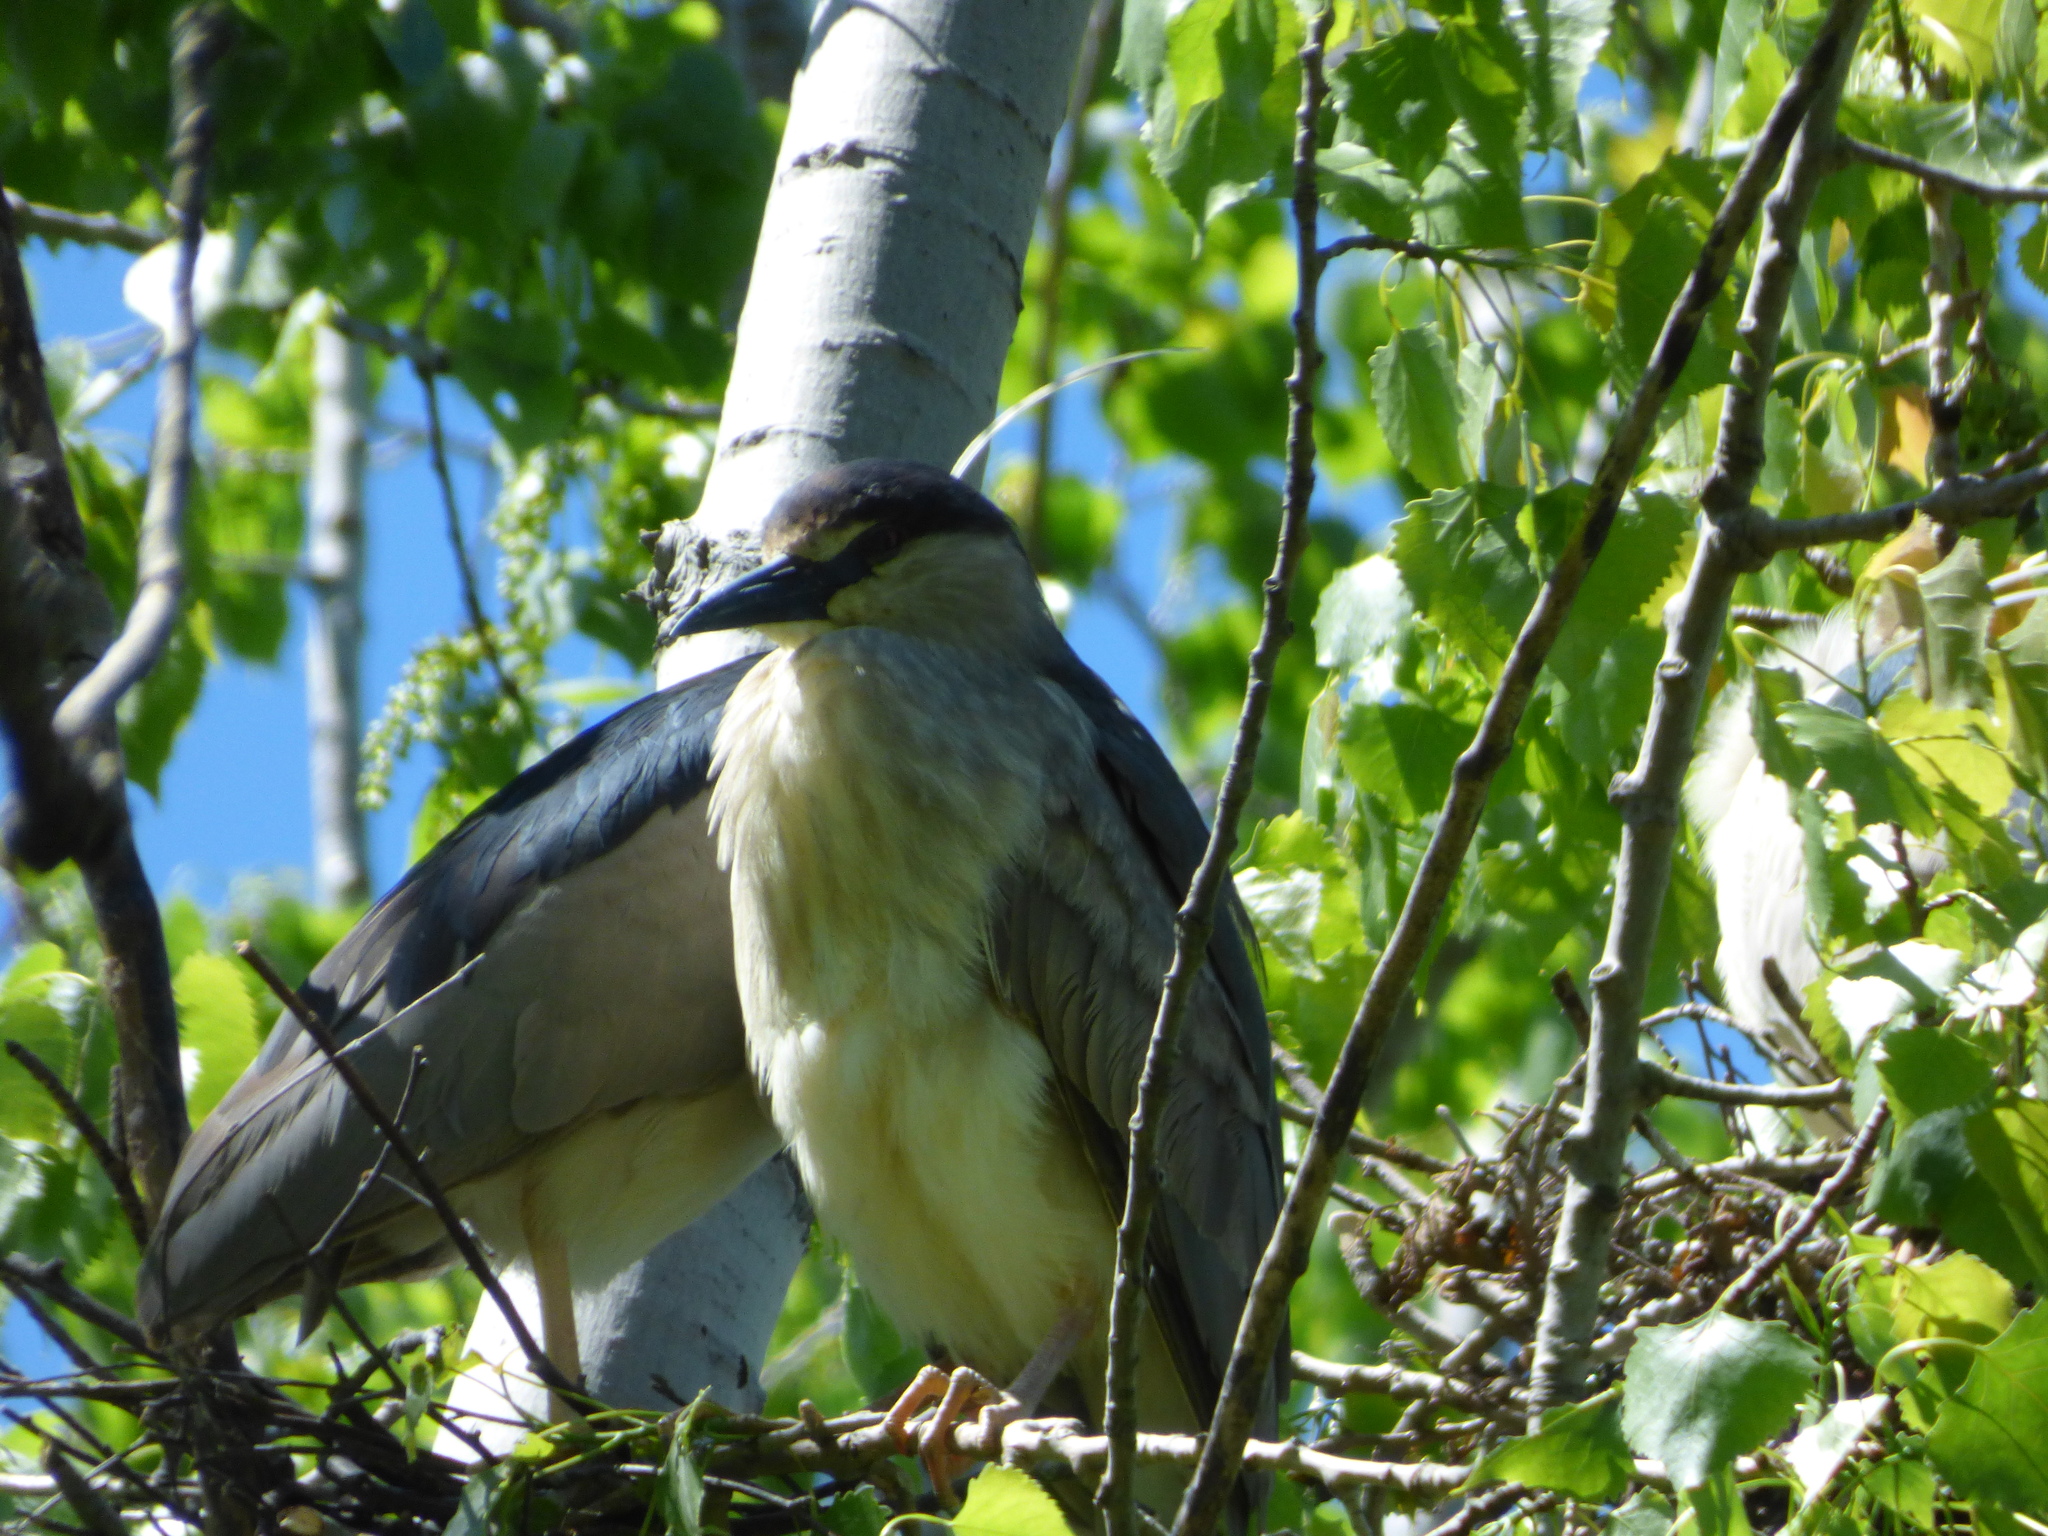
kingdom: Animalia
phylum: Chordata
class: Aves
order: Pelecaniformes
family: Ardeidae
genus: Nycticorax
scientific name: Nycticorax nycticorax
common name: Black-crowned night heron
